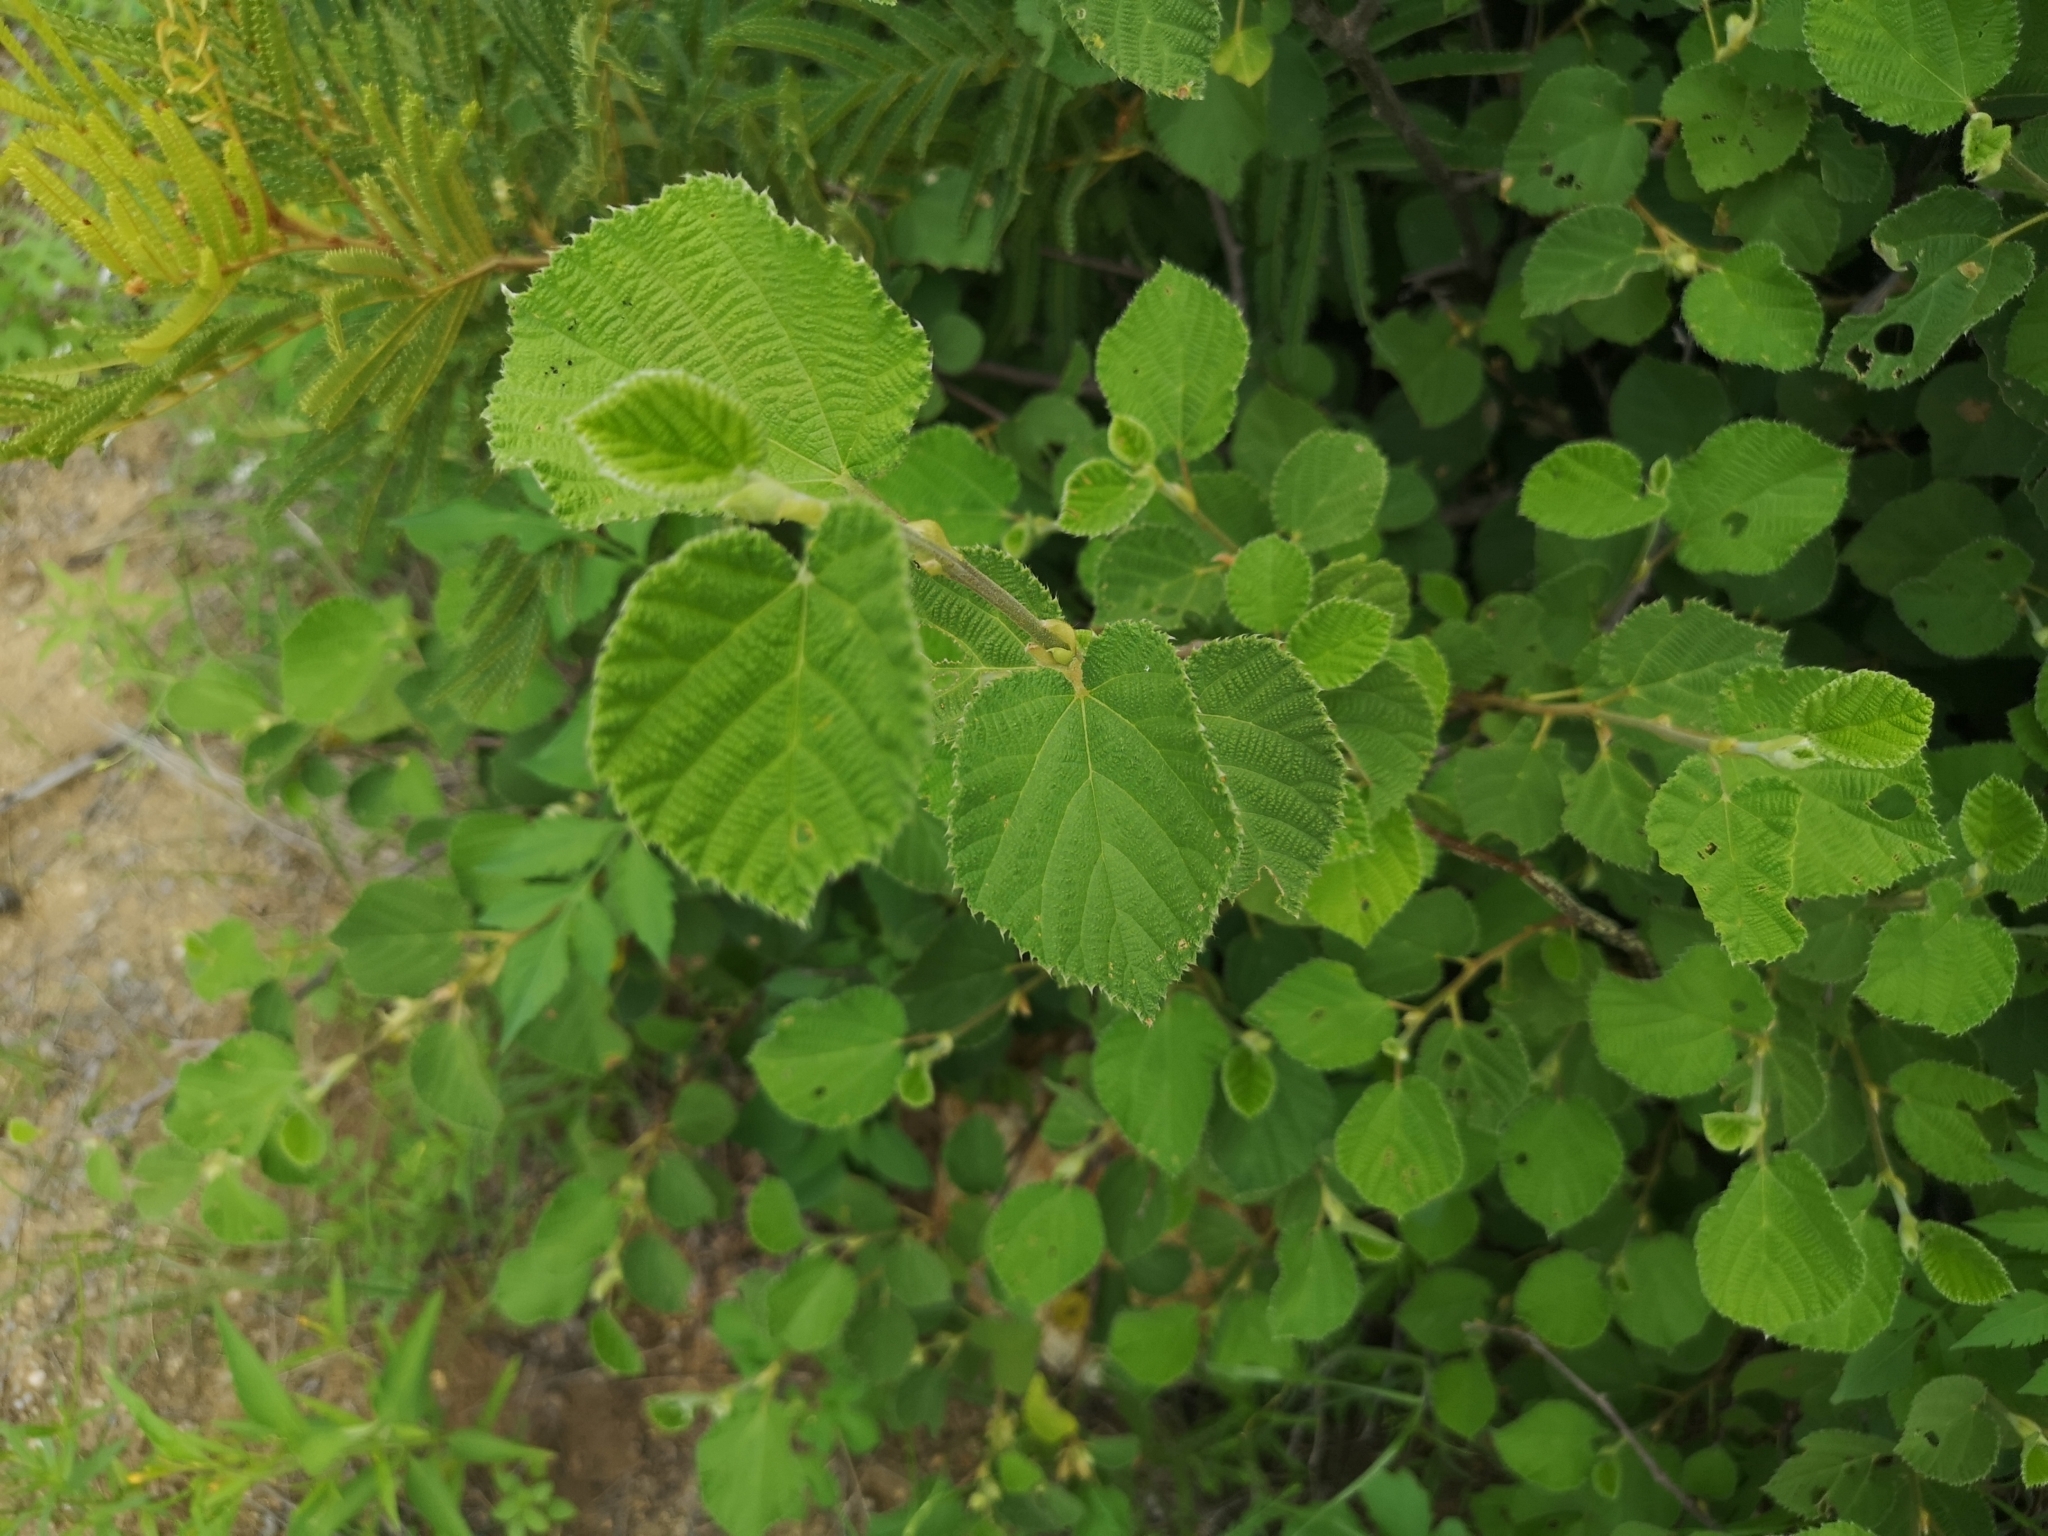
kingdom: Plantae
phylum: Tracheophyta
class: Magnoliopsida
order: Malvales
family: Malvaceae
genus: Grewia
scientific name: Grewia villosa
